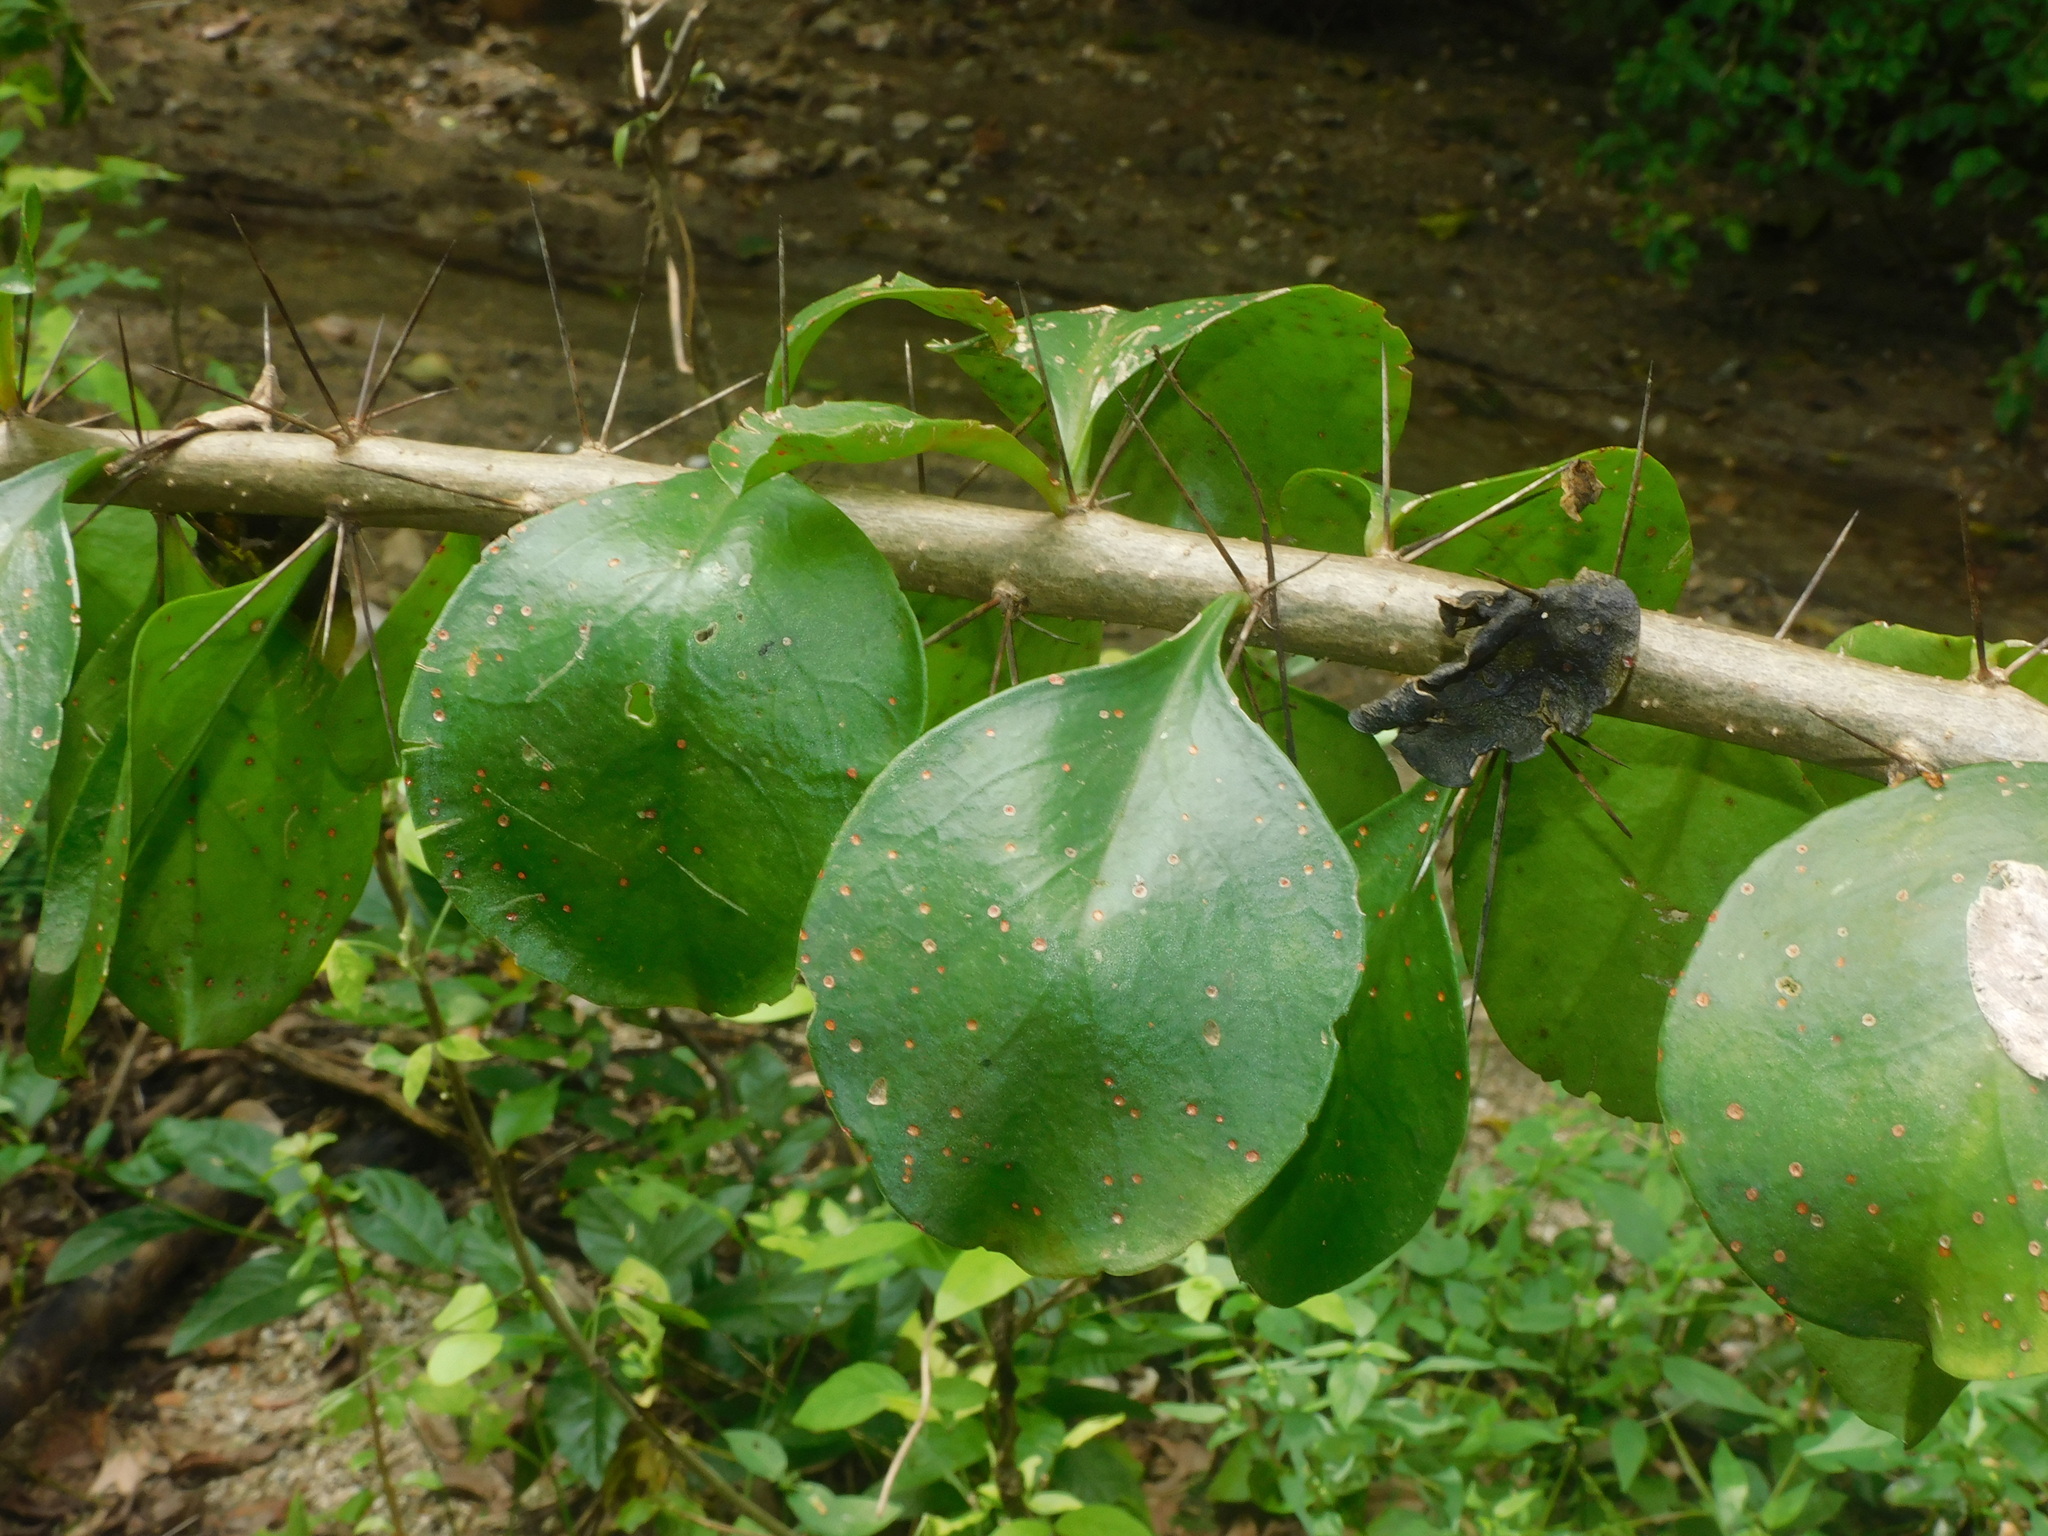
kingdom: Plantae
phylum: Tracheophyta
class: Magnoliopsida
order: Caryophyllales
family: Cactaceae
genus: Leuenbergeria
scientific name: Leuenbergeria guamacho
